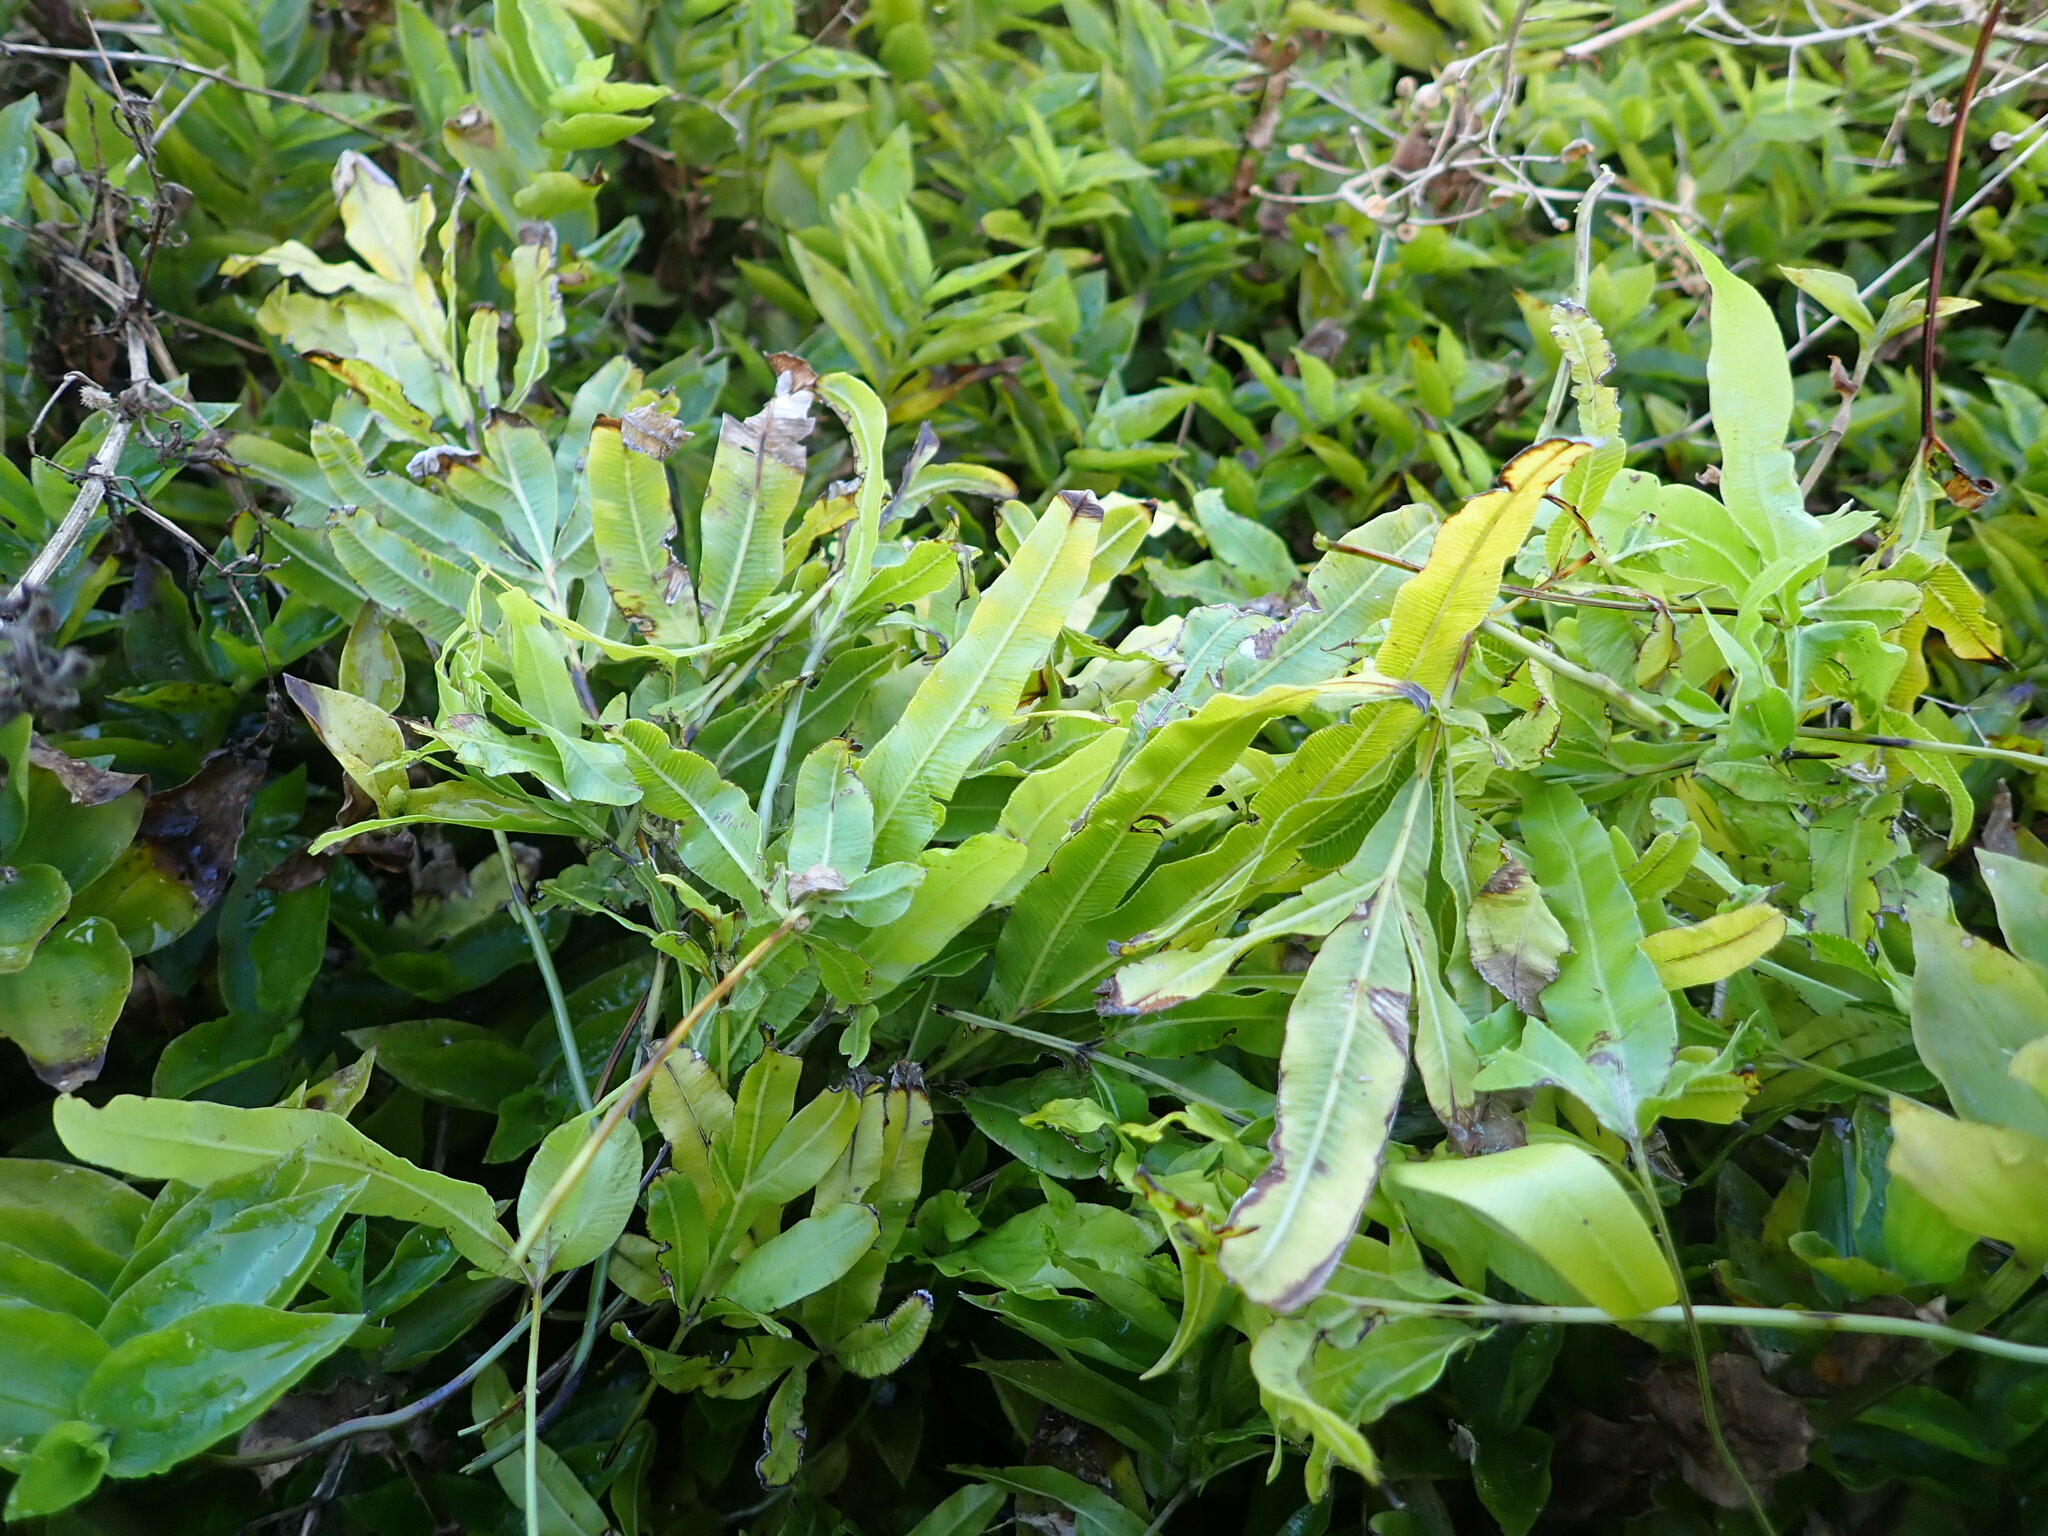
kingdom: Plantae
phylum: Tracheophyta
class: Polypodiopsida
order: Polypodiales
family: Pteridaceae
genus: Pteris
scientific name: Pteris cretica
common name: Ribbon fern
